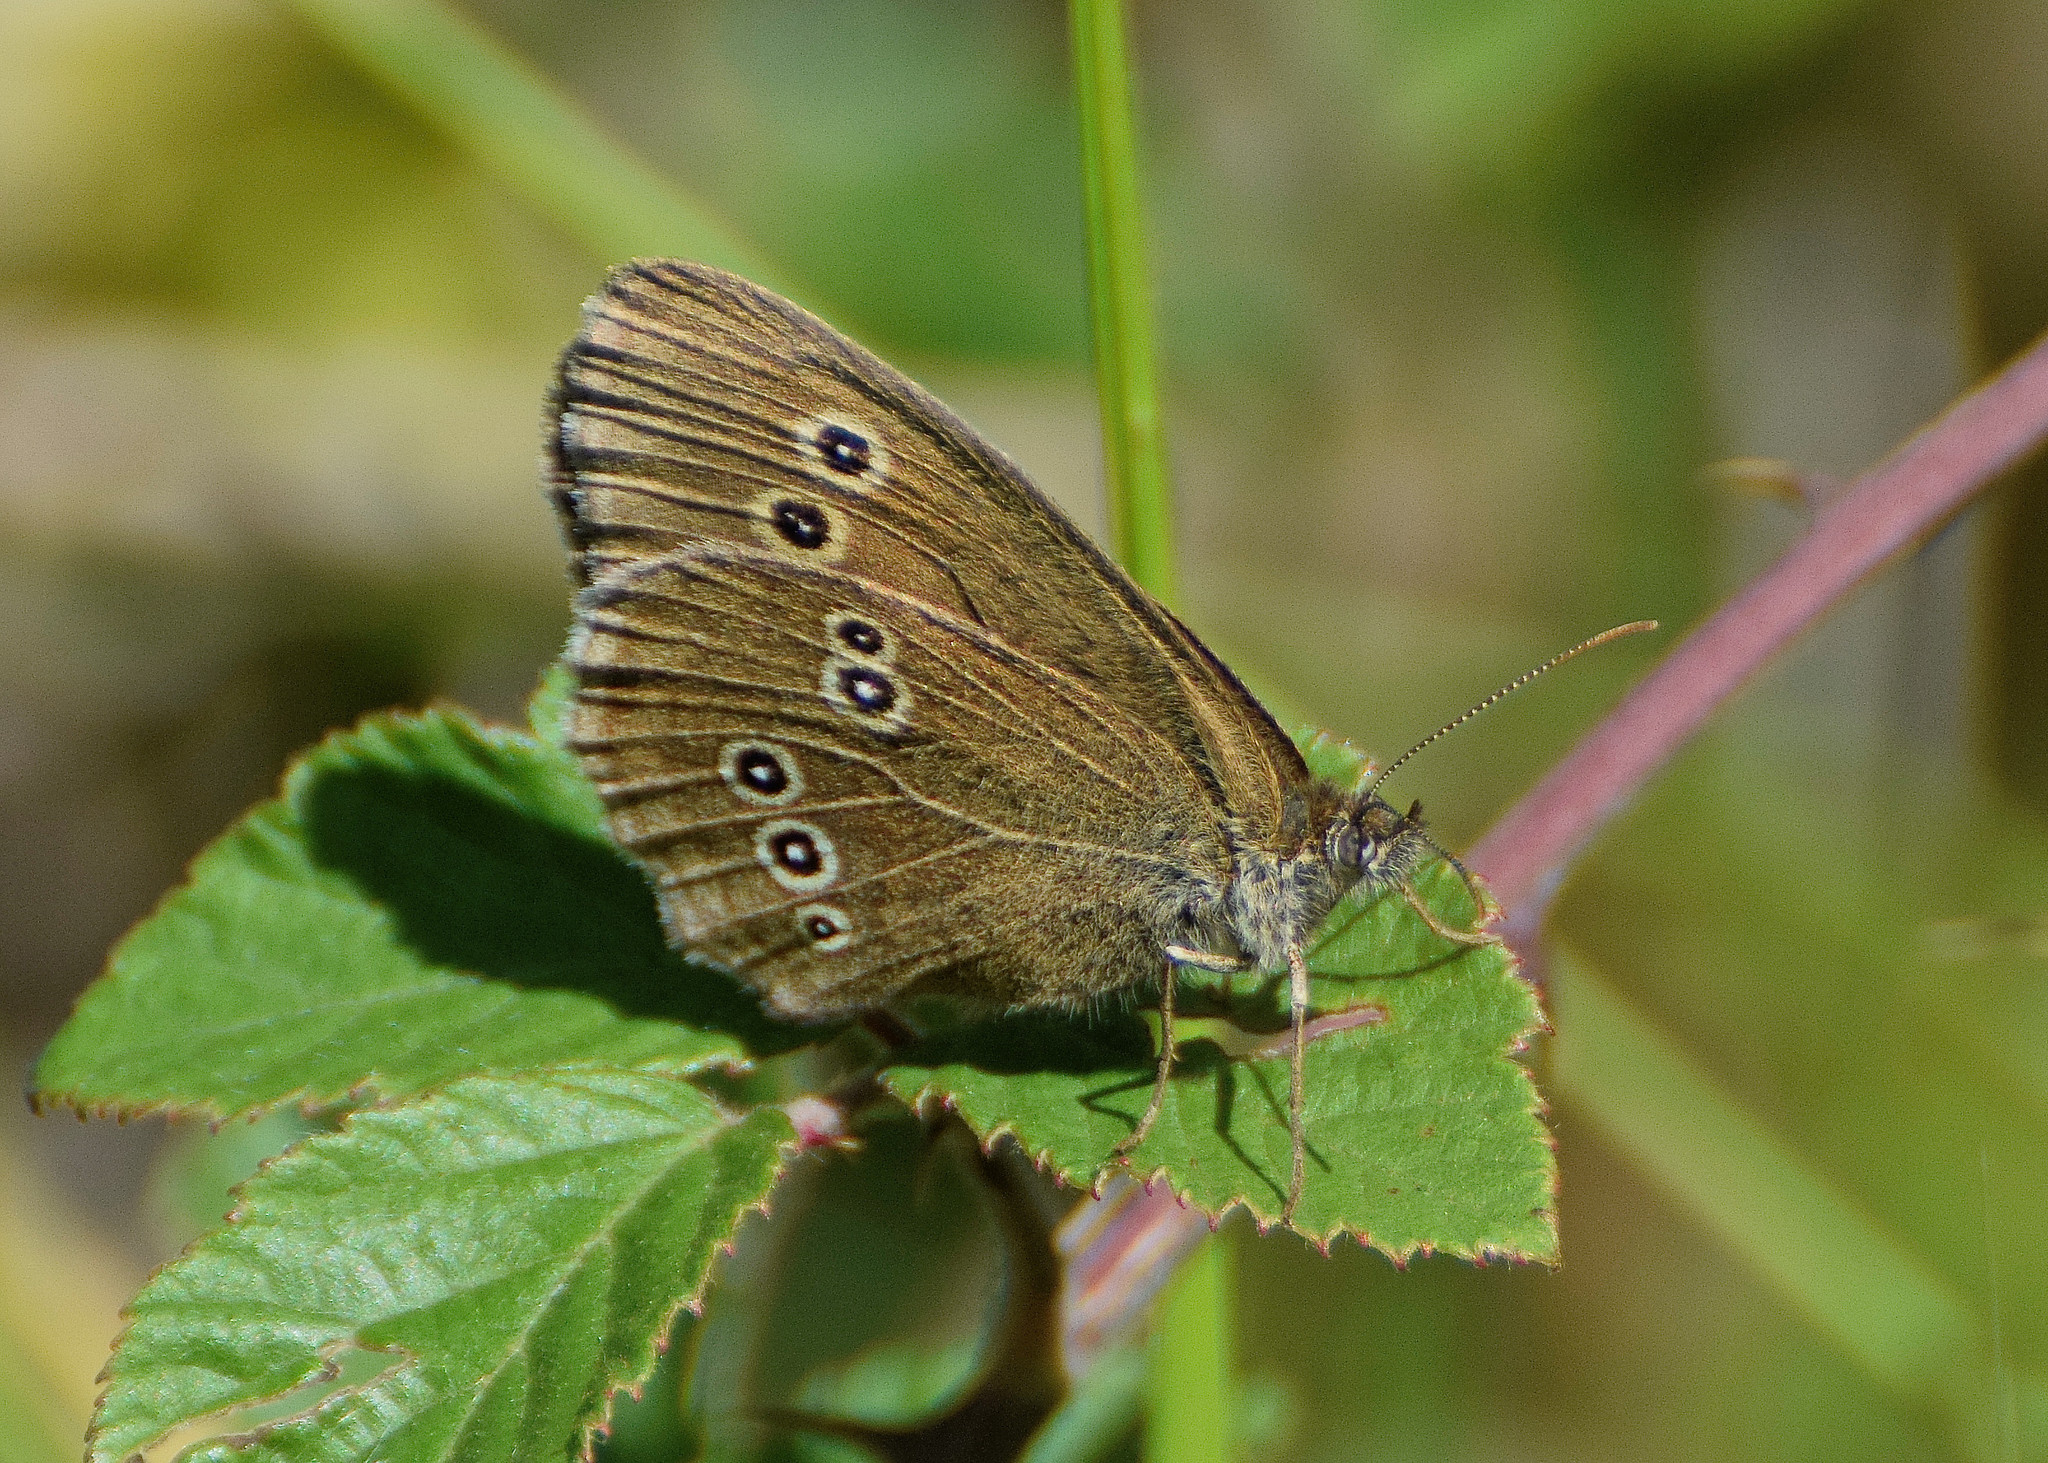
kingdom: Animalia
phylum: Arthropoda
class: Insecta
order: Lepidoptera
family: Nymphalidae
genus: Aphantopus
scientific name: Aphantopus hyperantus
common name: Ringlet
